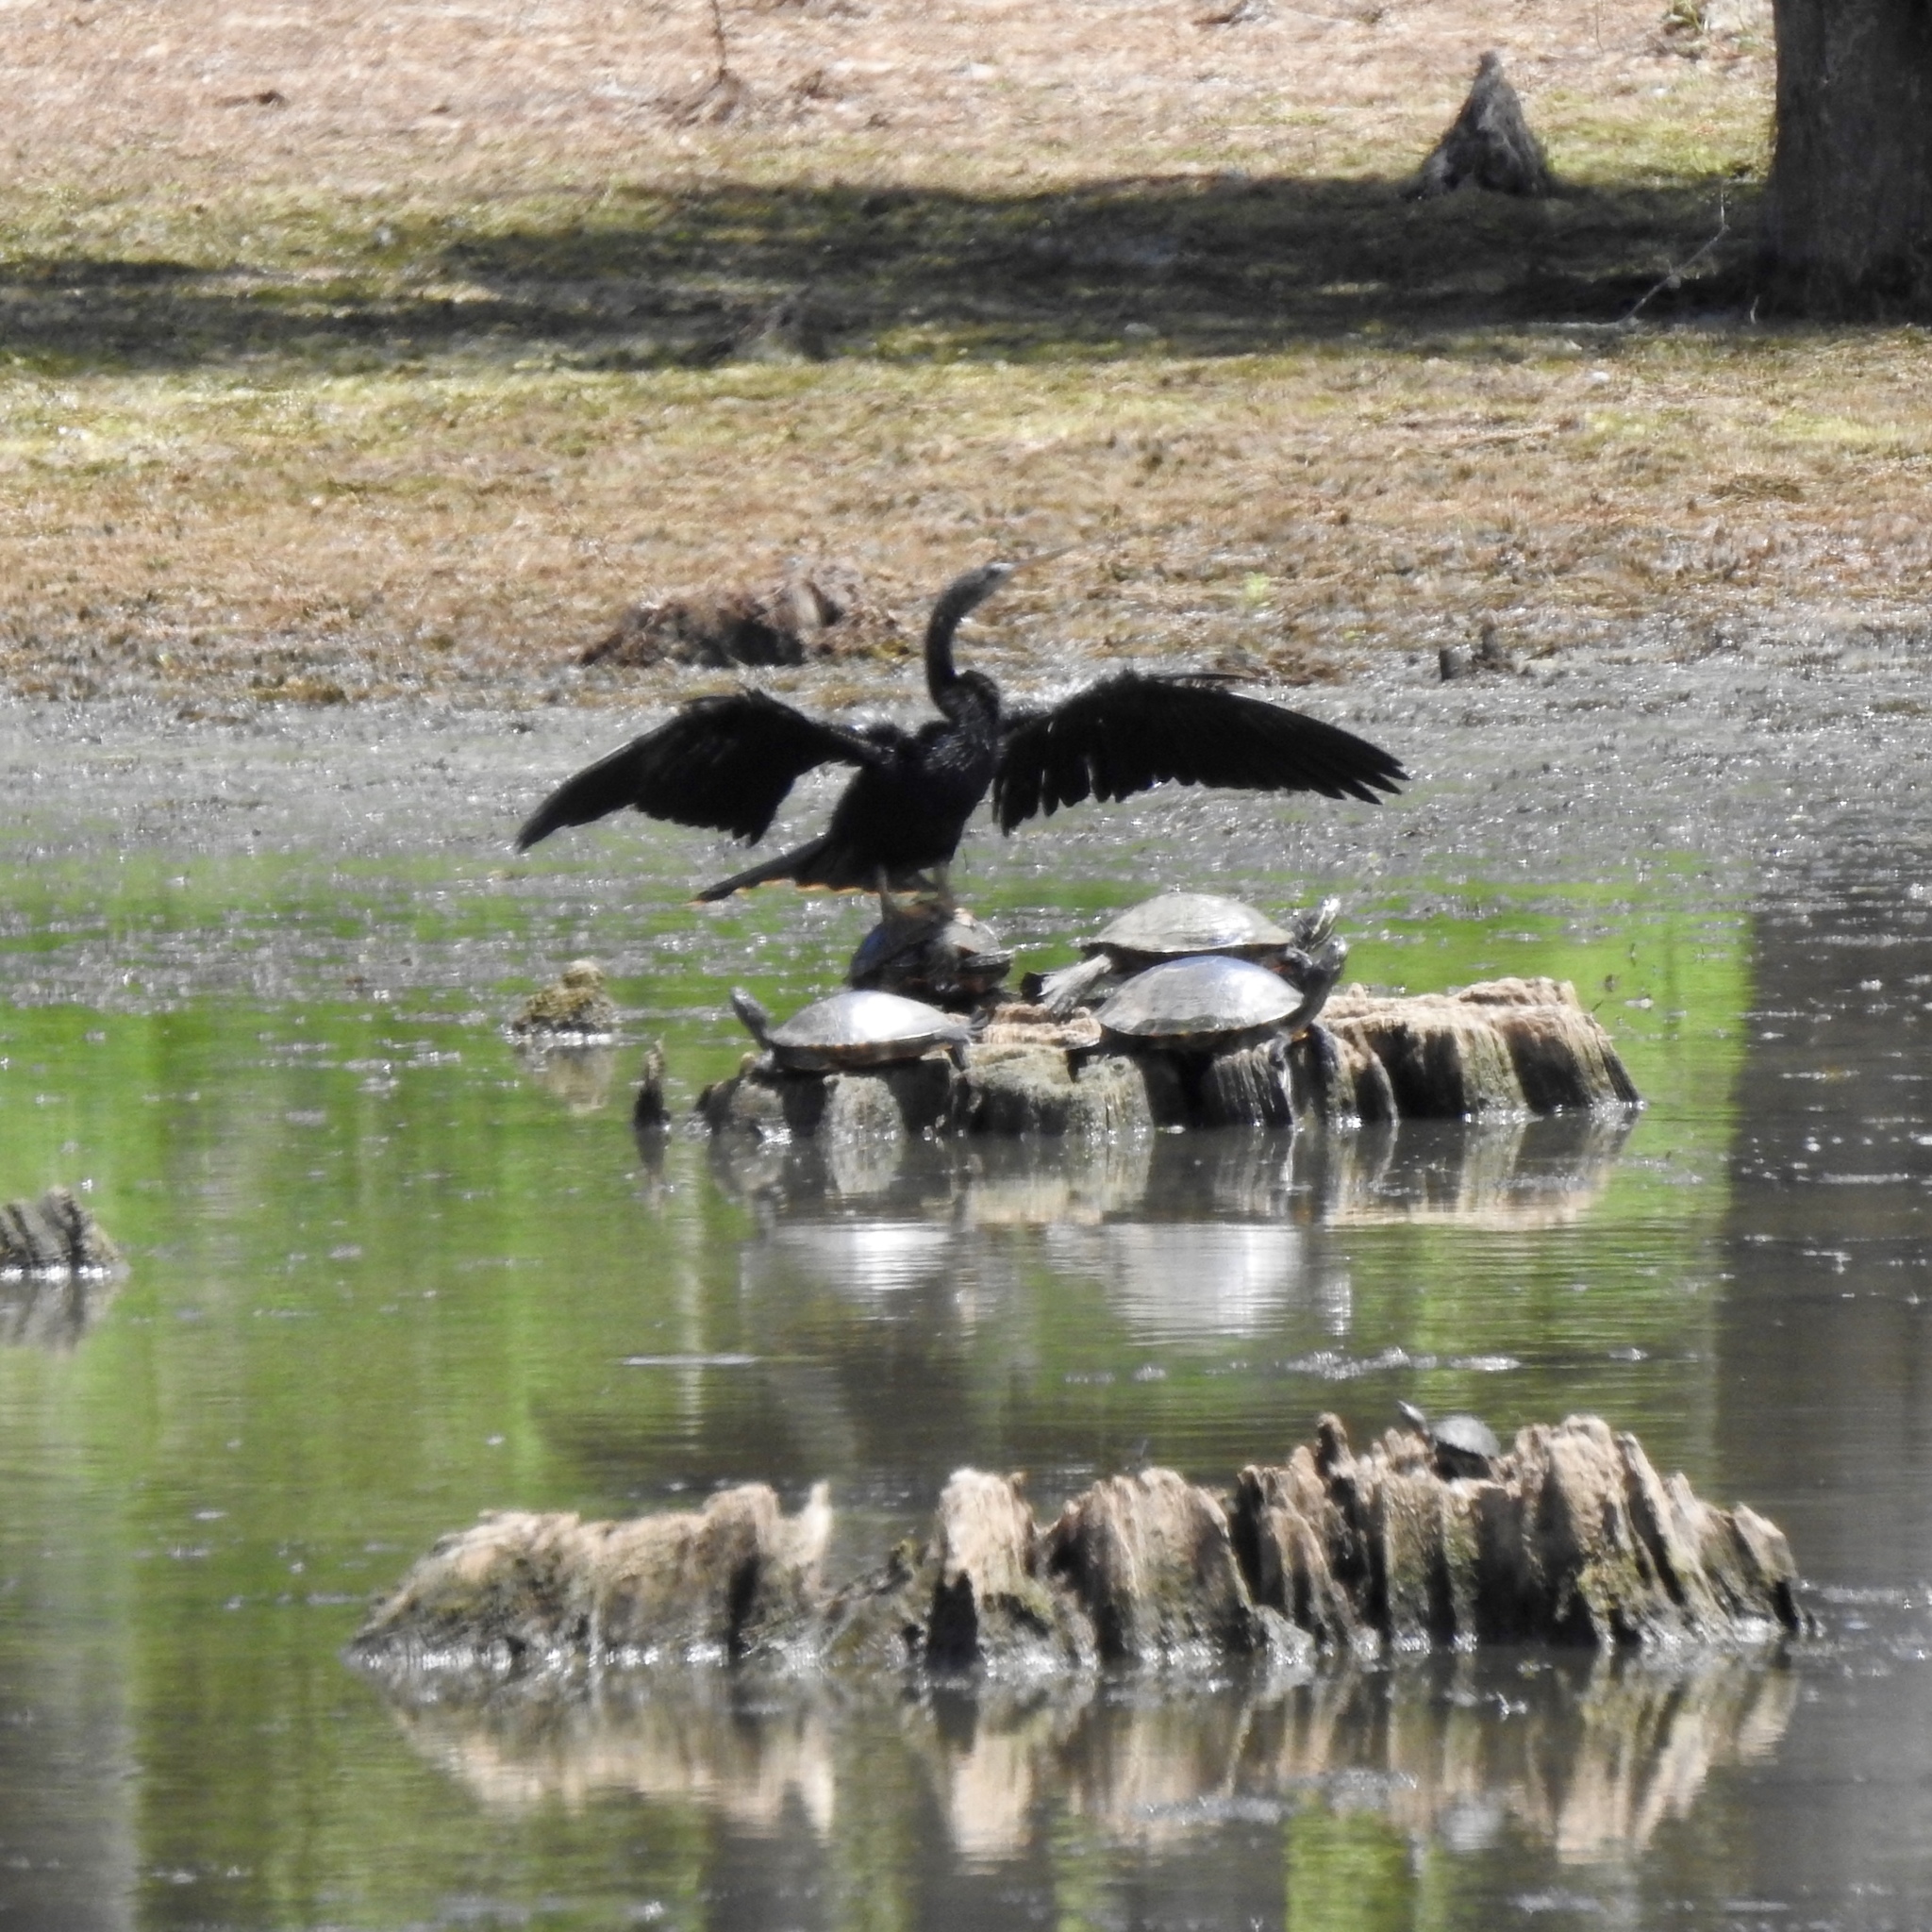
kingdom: Animalia
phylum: Chordata
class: Aves
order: Suliformes
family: Anhingidae
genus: Anhinga
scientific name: Anhinga anhinga
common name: Anhinga
